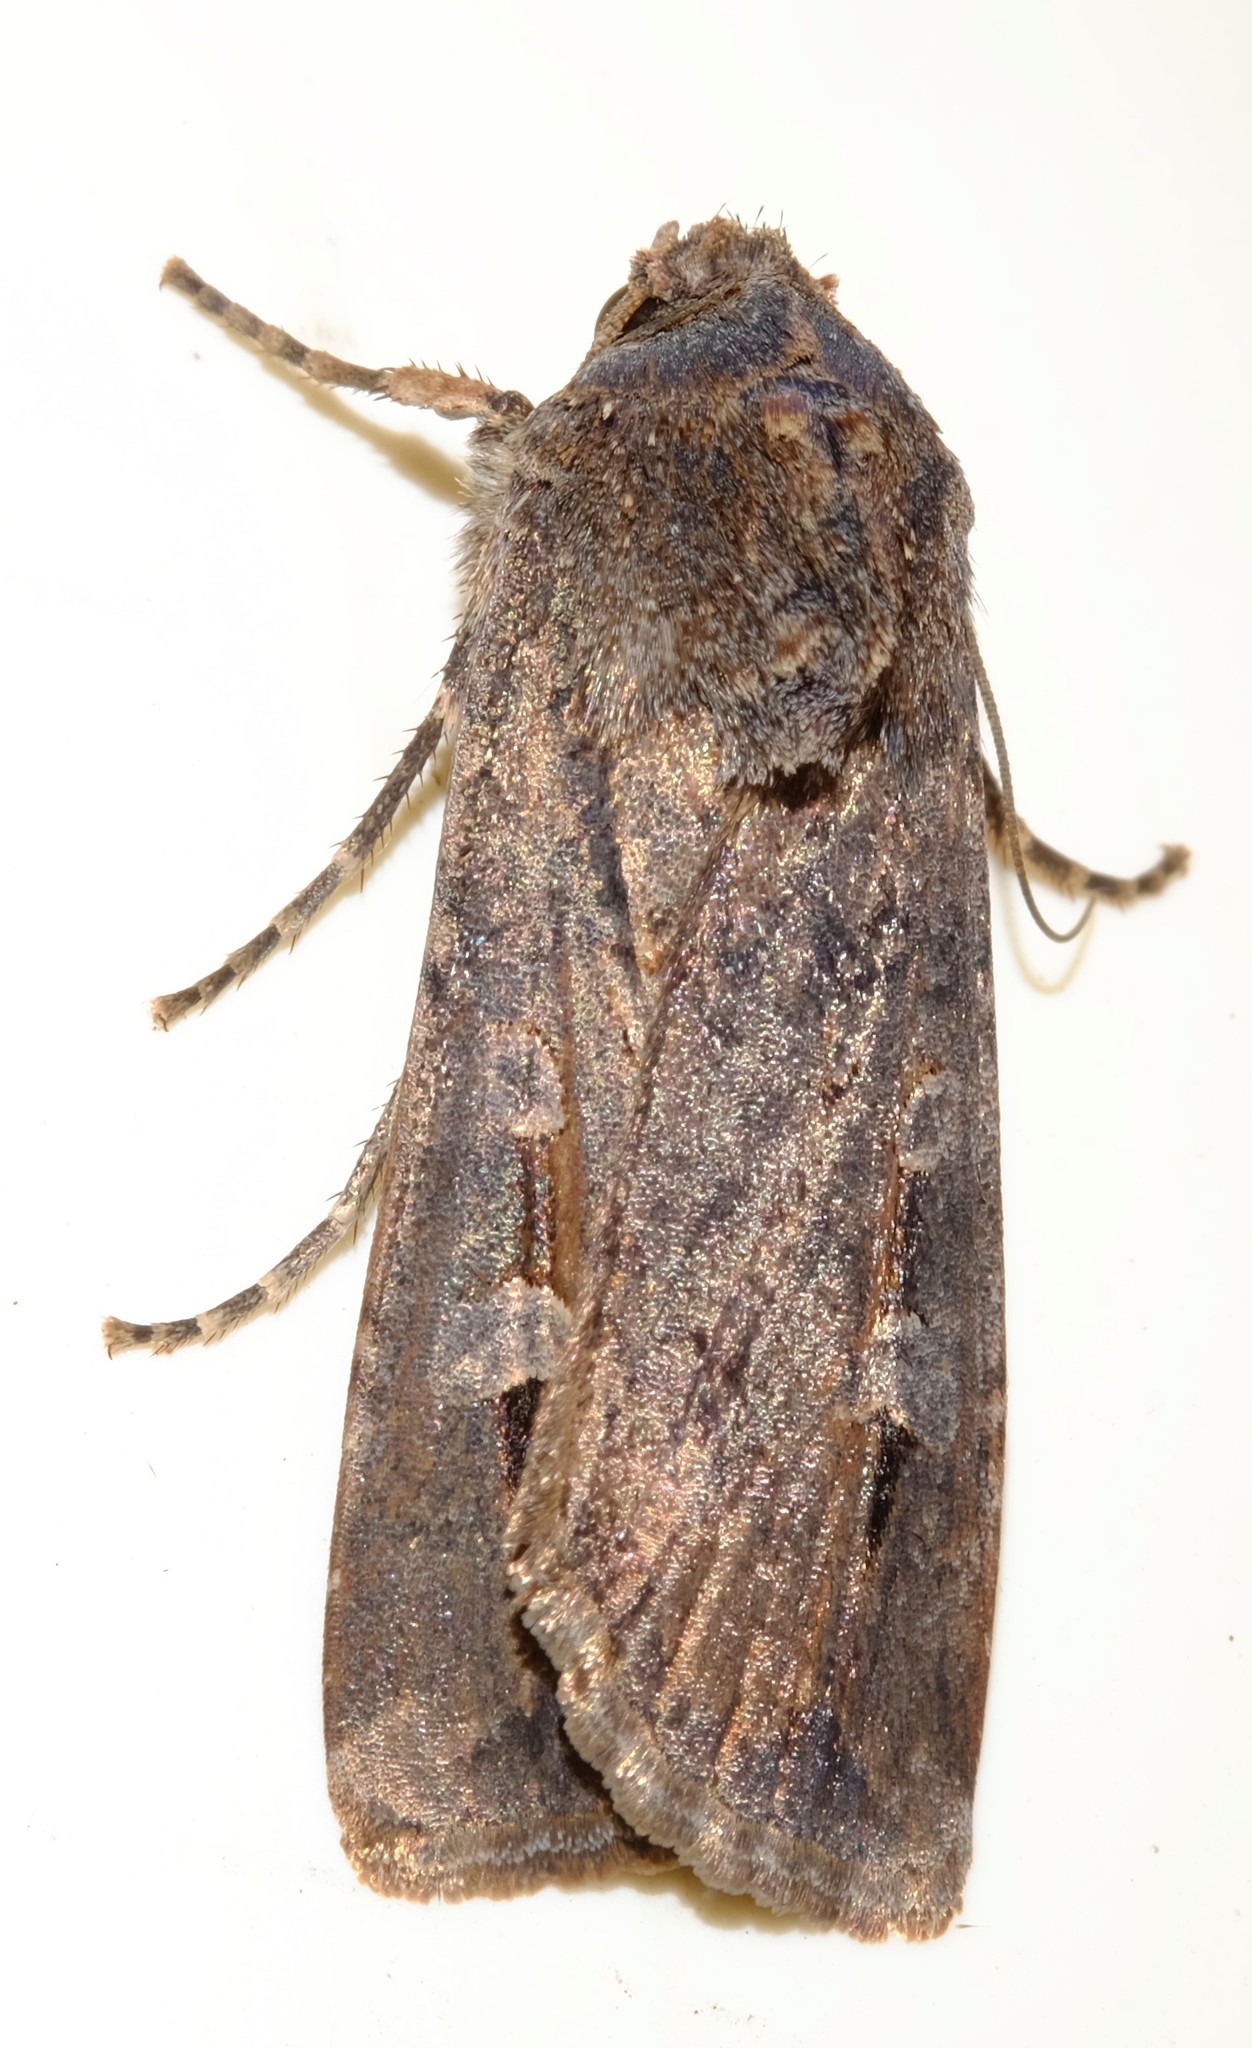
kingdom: Animalia
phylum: Arthropoda
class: Insecta
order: Lepidoptera
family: Noctuidae
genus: Agrotis
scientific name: Agrotis infusa
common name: Bogong moth
